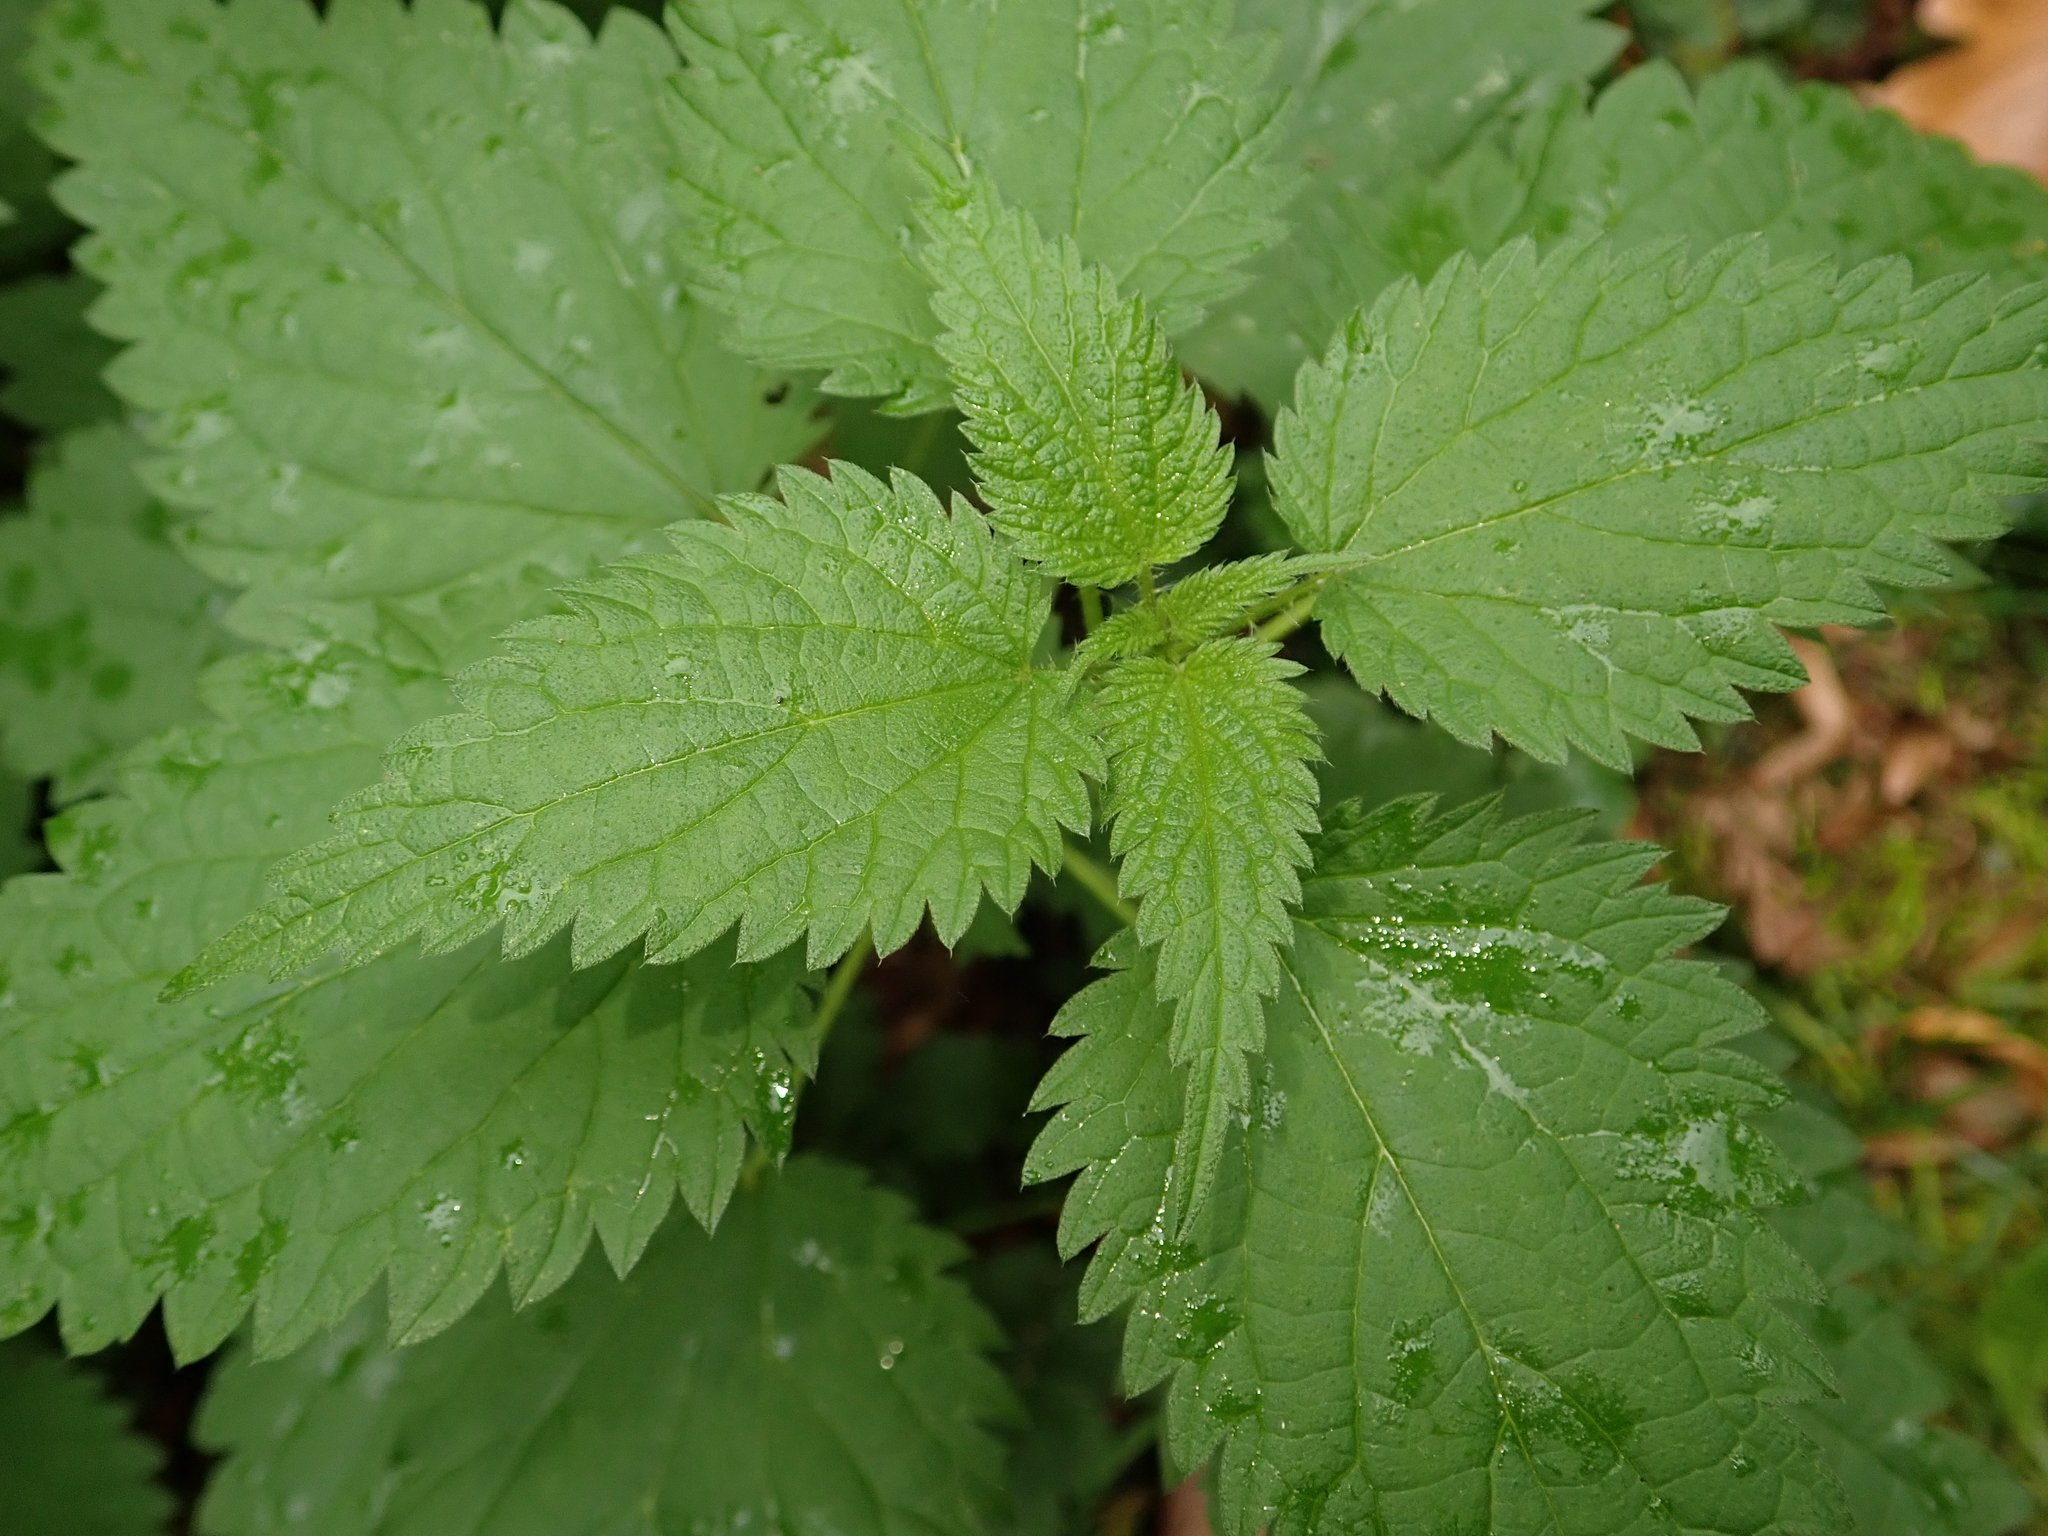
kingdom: Plantae
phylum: Tracheophyta
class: Magnoliopsida
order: Rosales
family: Urticaceae
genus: Urtica
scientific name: Urtica dioica
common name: Common nettle
